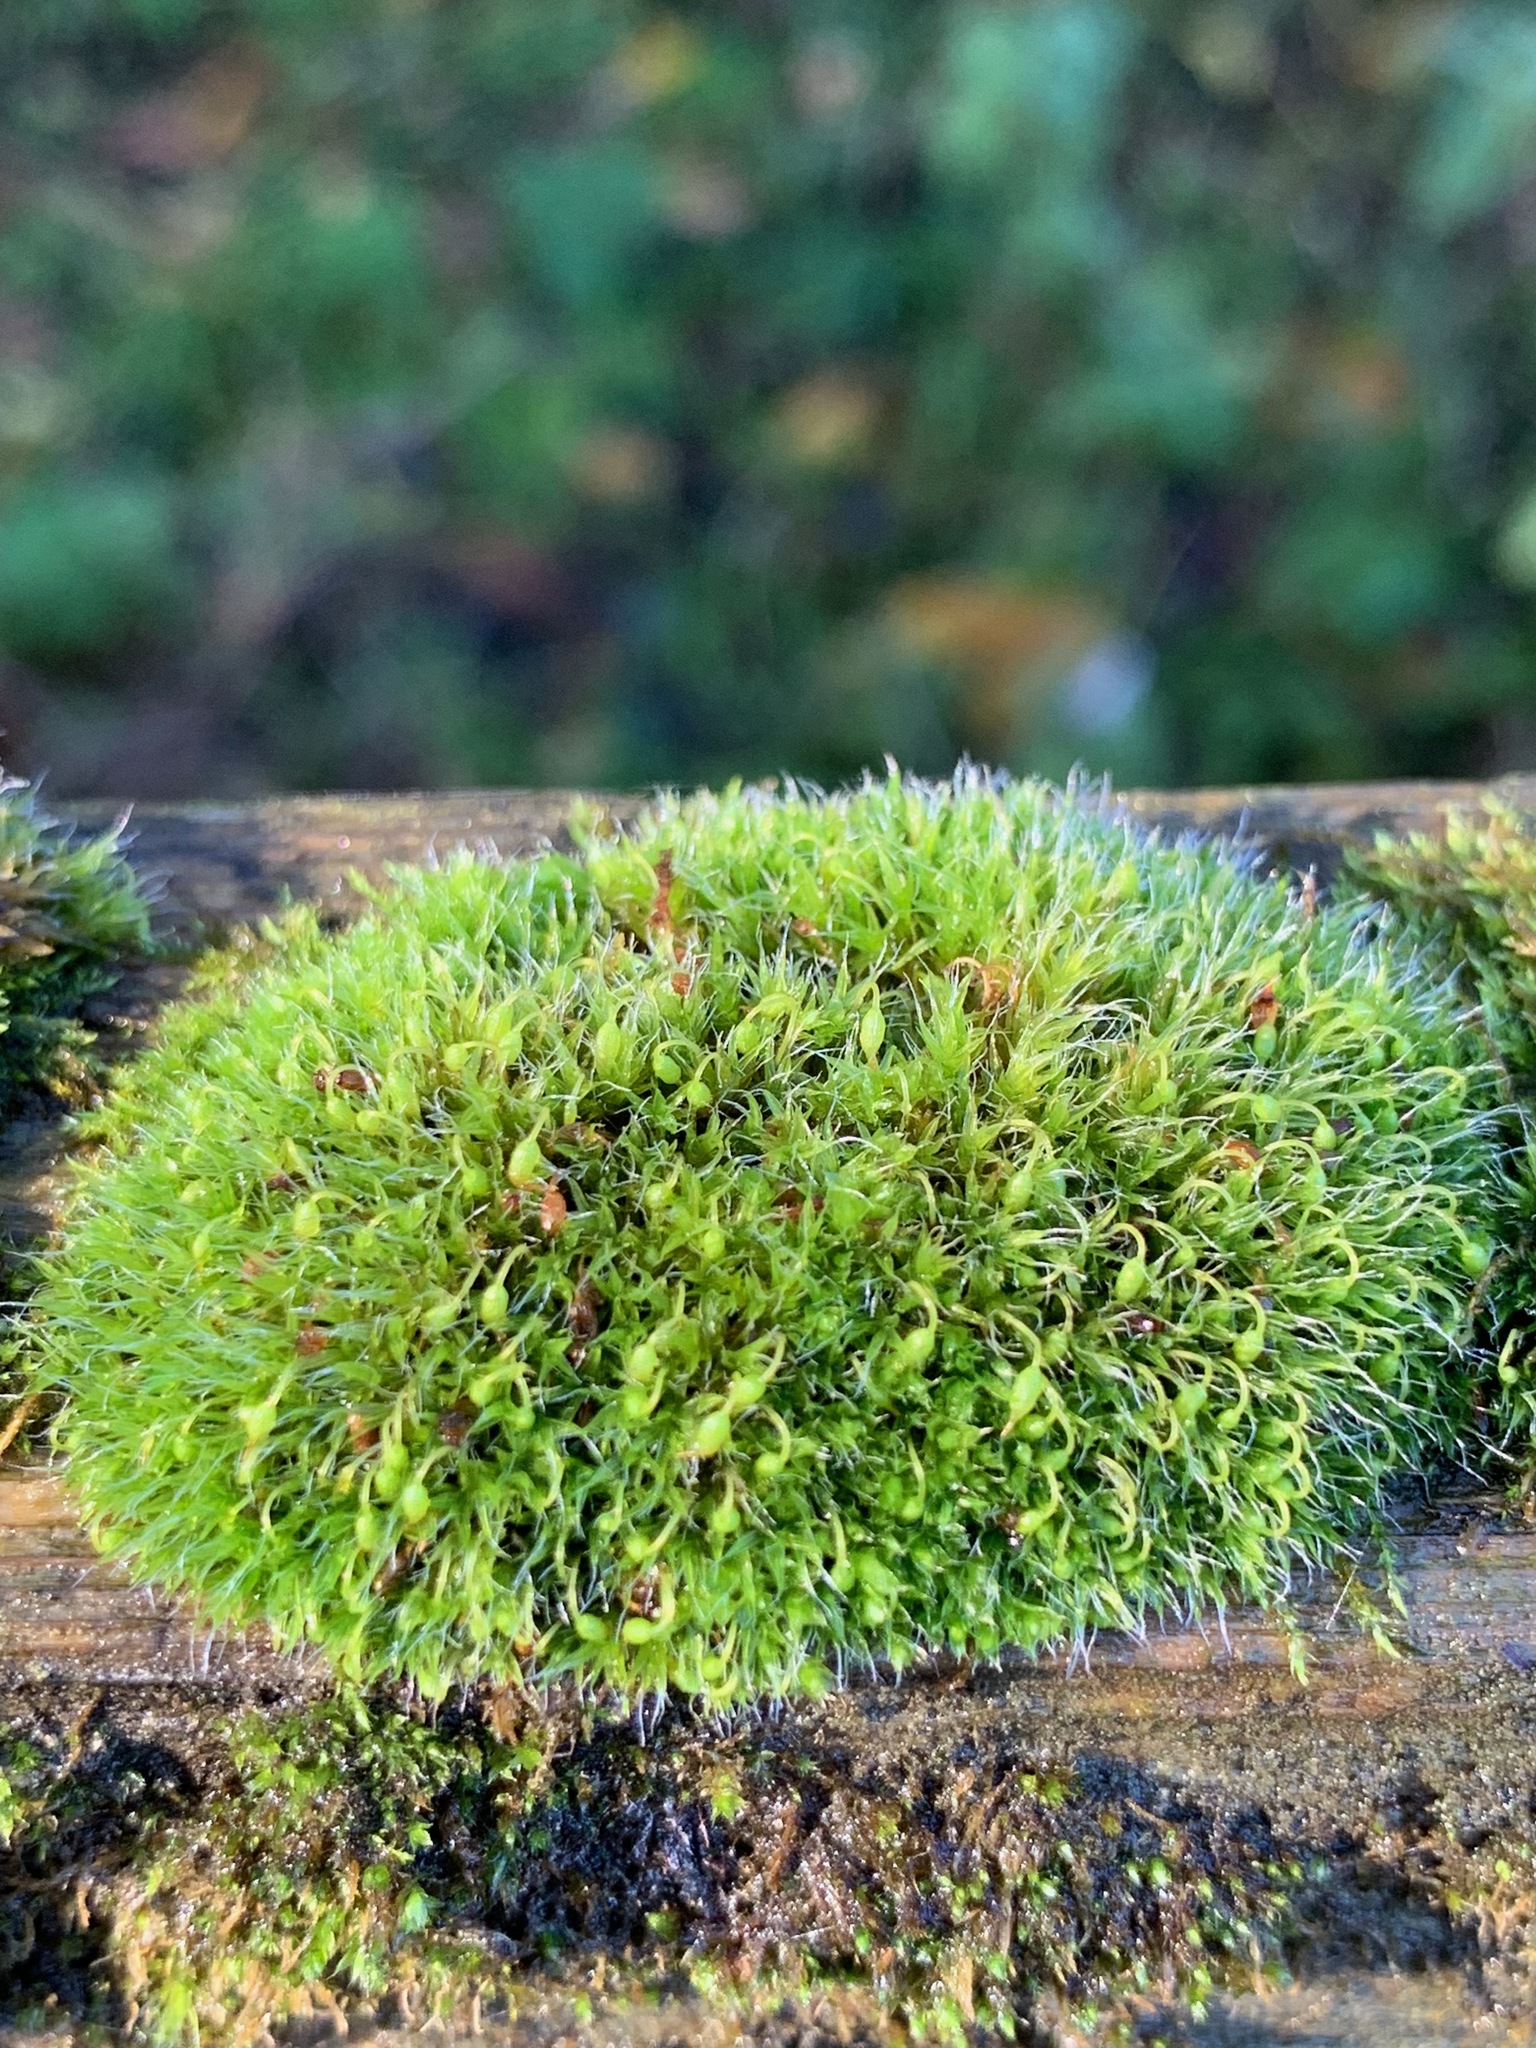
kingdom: Plantae
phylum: Bryophyta
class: Bryopsida
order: Grimmiales
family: Grimmiaceae
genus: Grimmia
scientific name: Grimmia pulvinata
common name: Grey-cushioned grimmia
